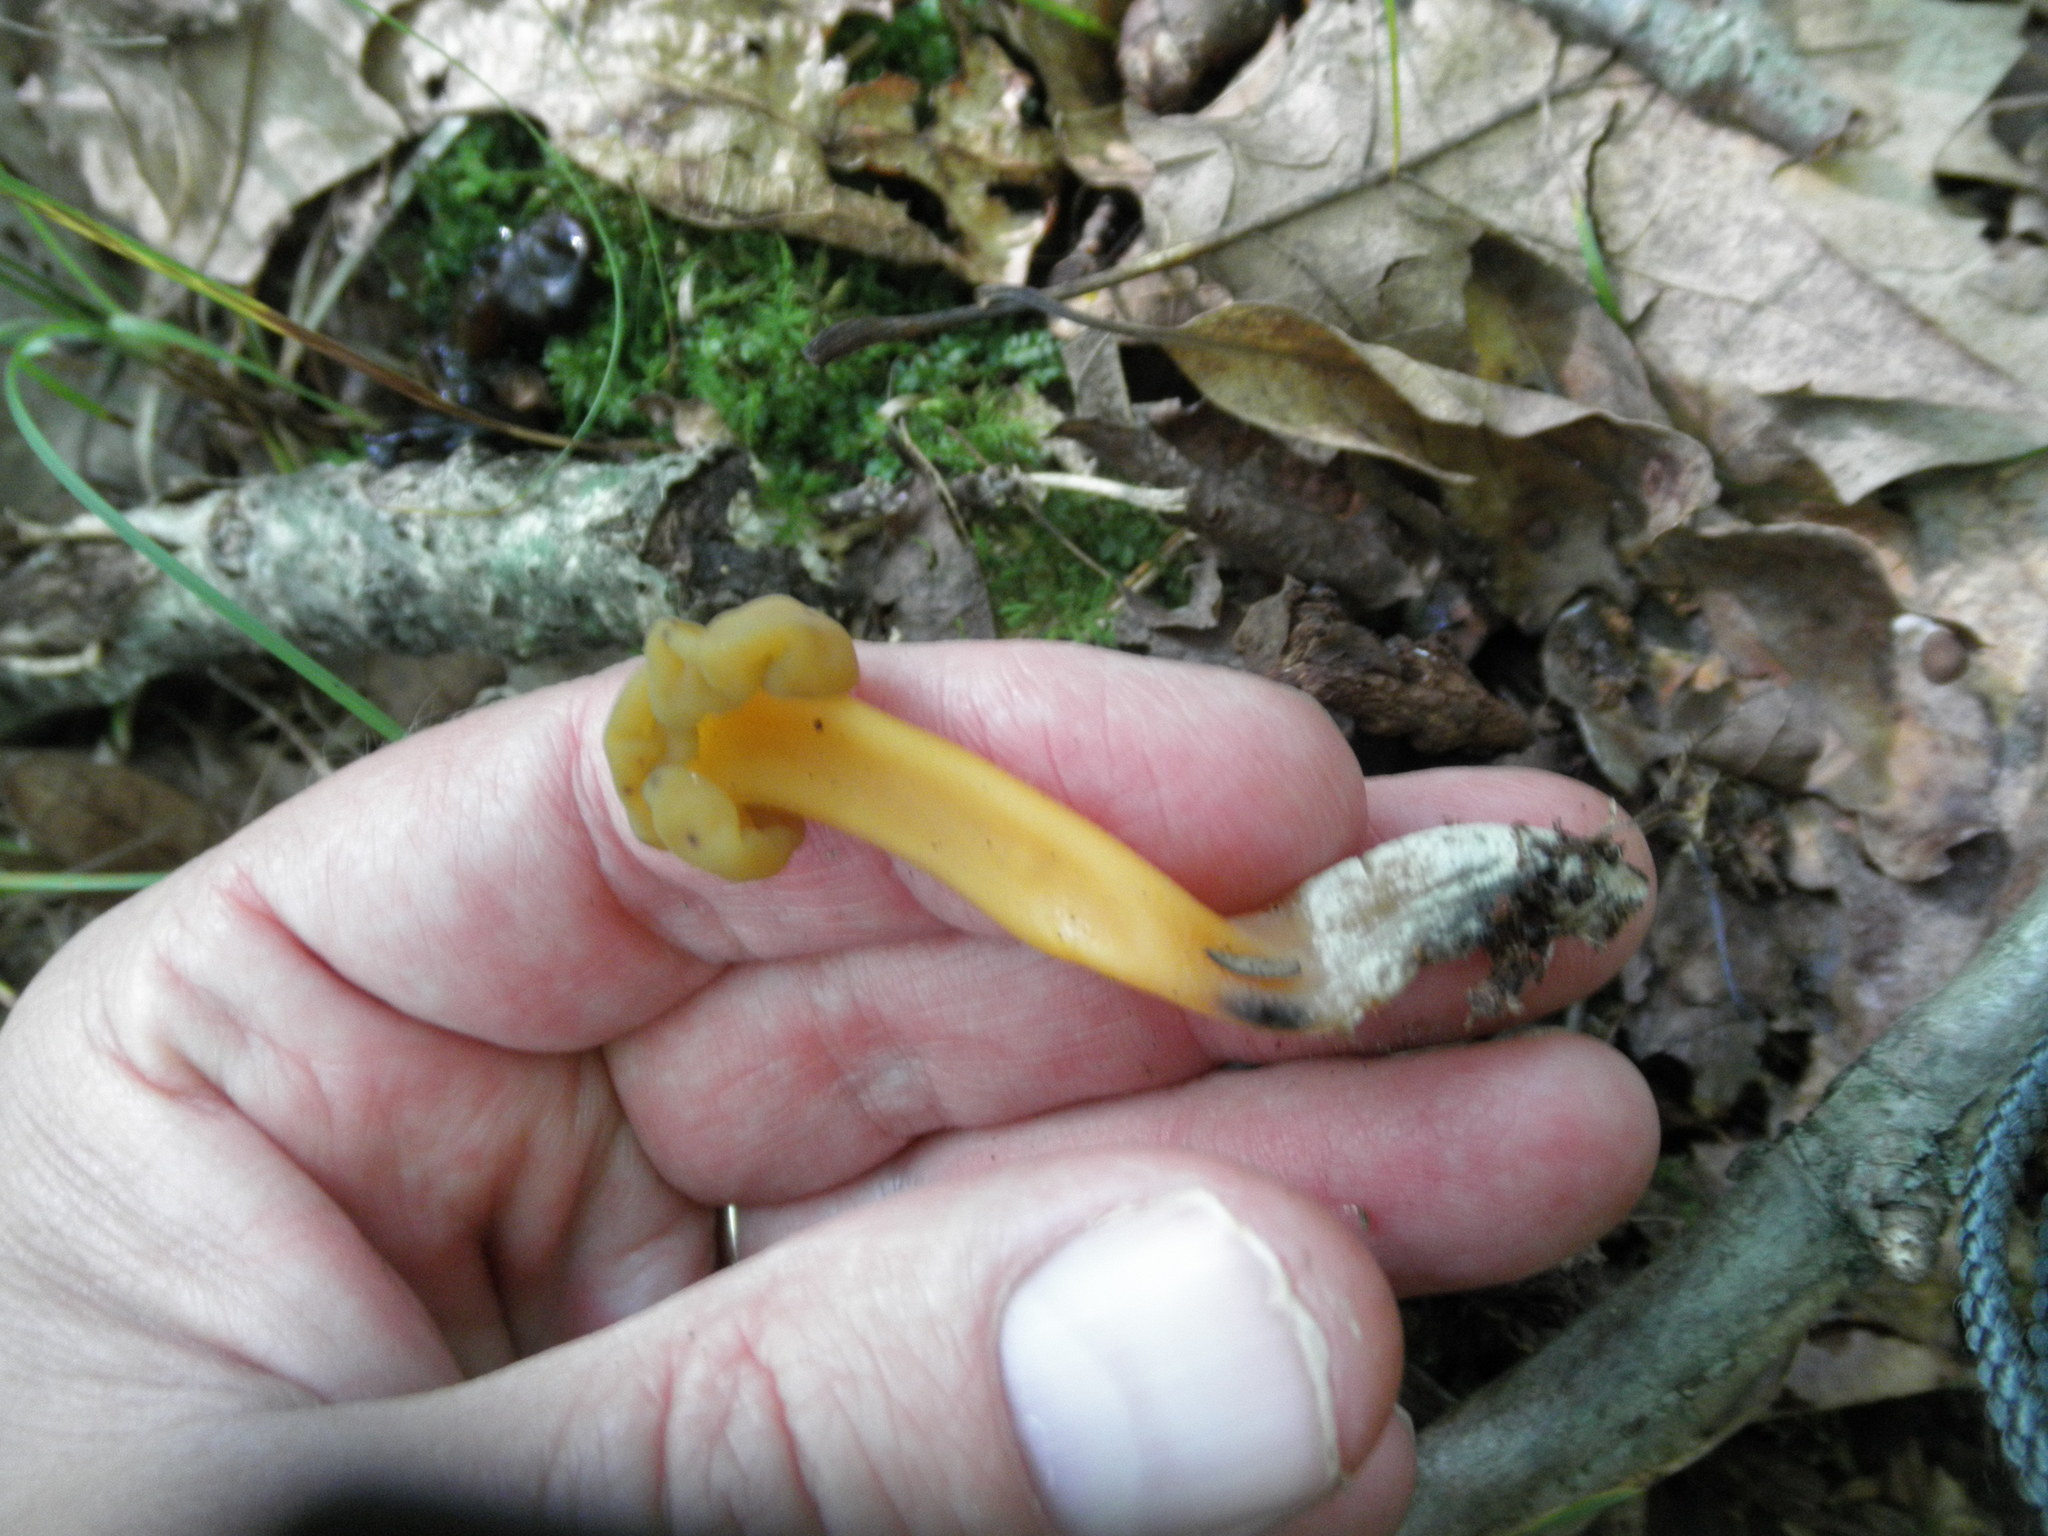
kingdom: Fungi
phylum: Ascomycota
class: Leotiomycetes
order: Leotiales
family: Leotiaceae
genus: Leotia
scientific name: Leotia lubrica
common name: Jellybaby
